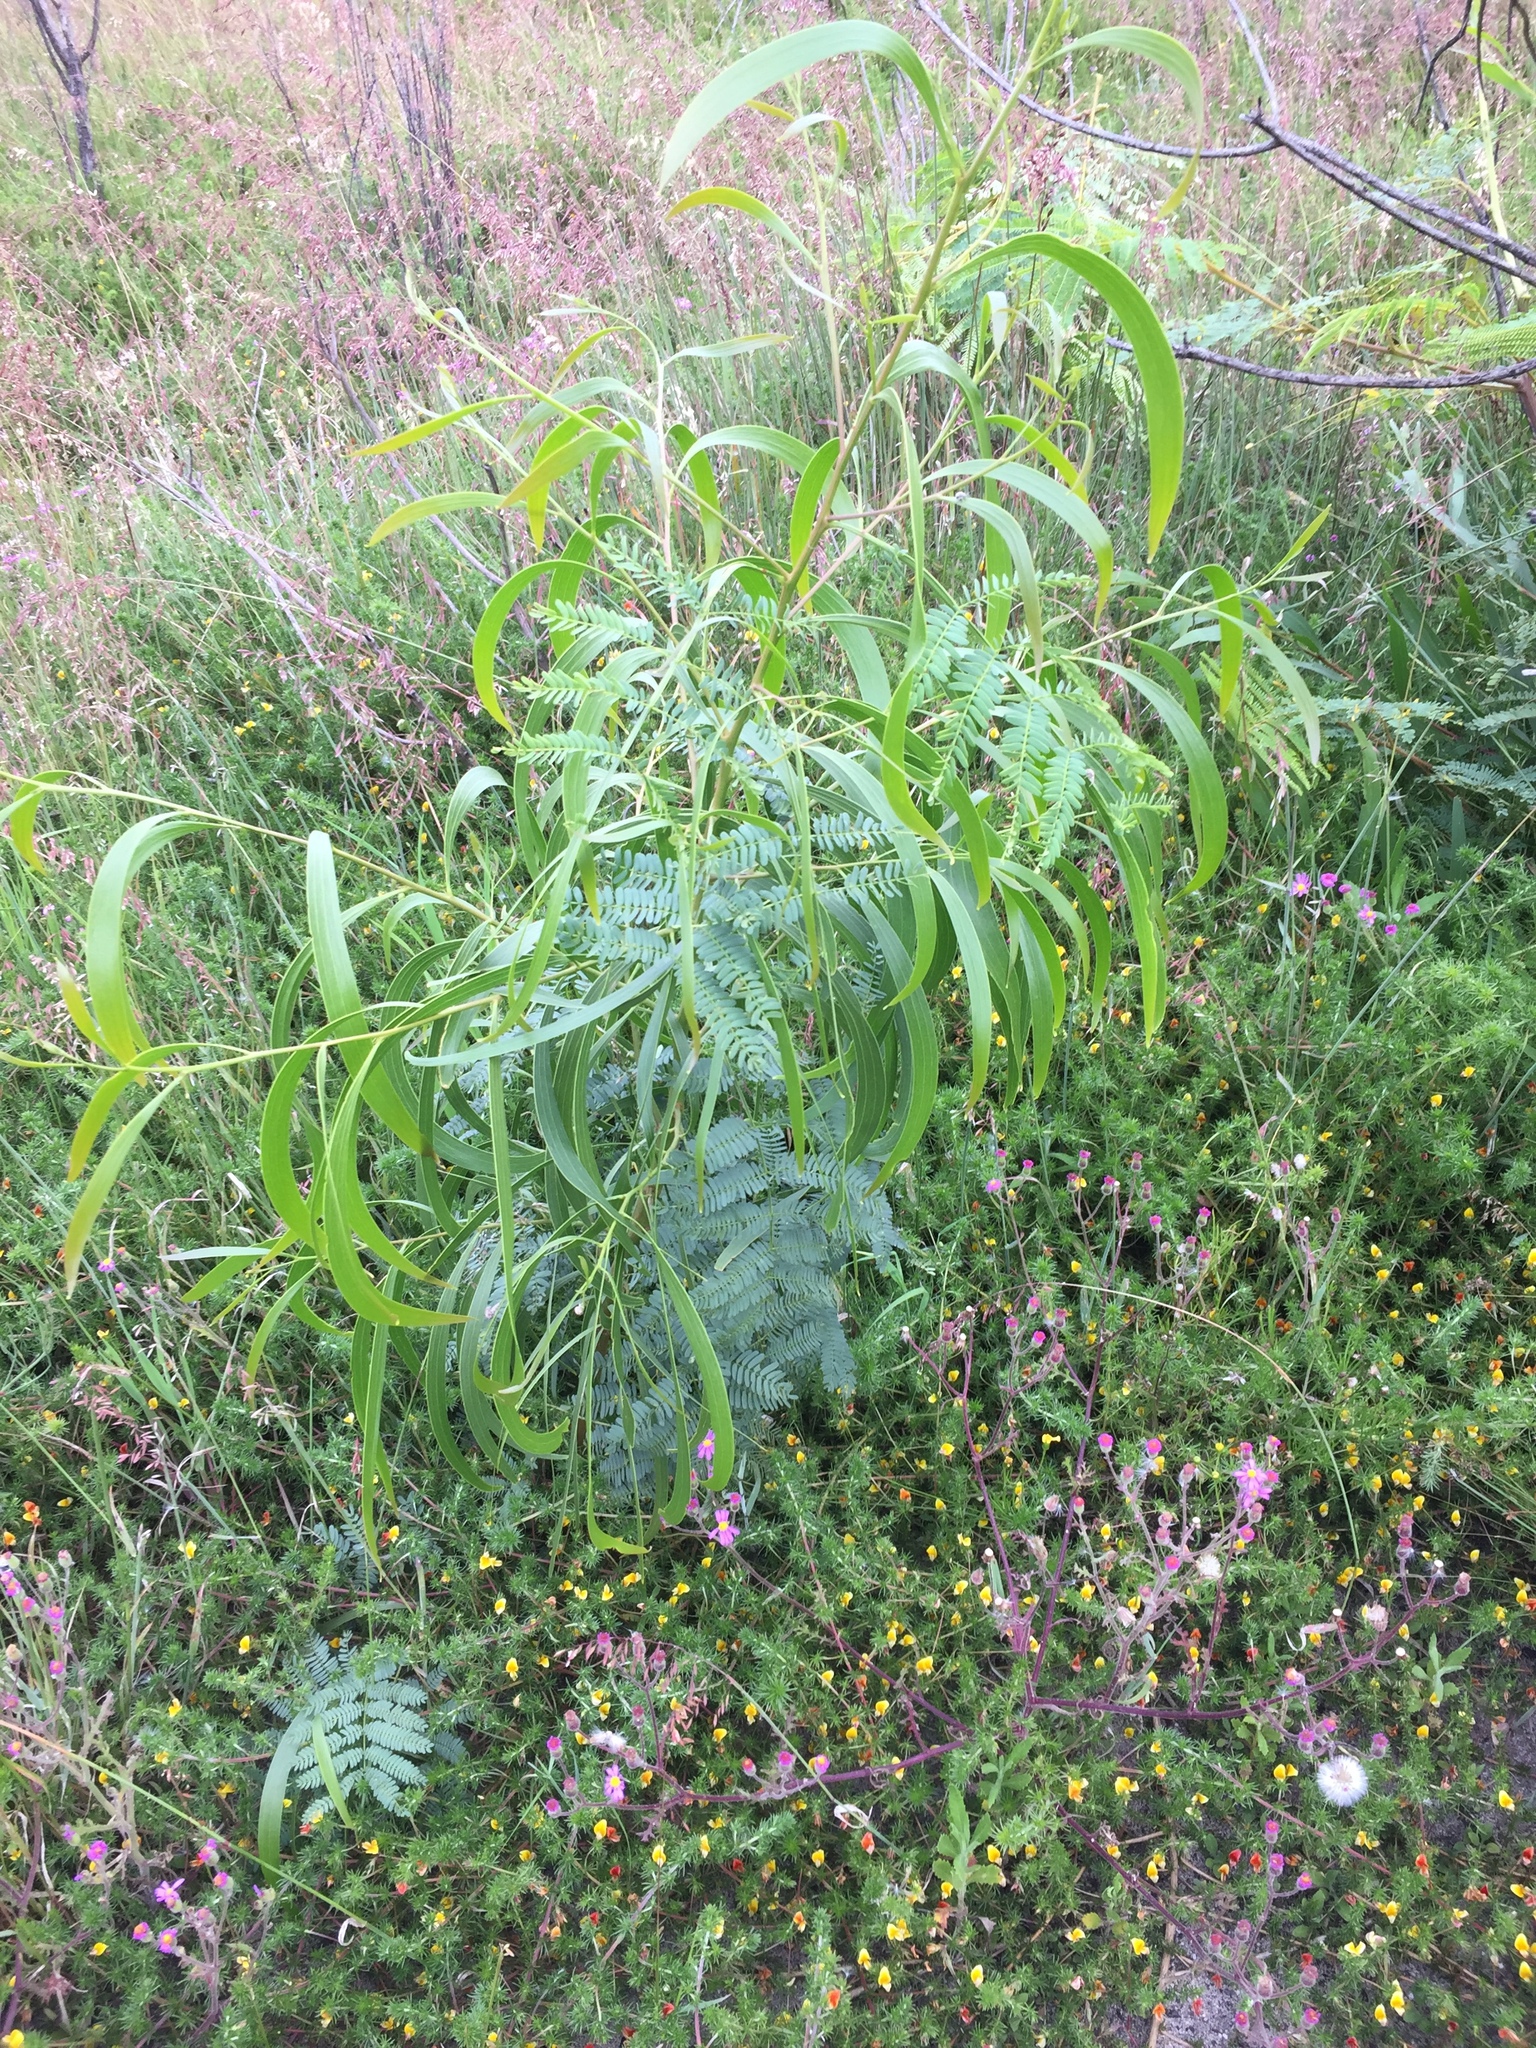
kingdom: Plantae
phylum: Tracheophyta
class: Magnoliopsida
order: Fabales
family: Fabaceae
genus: Acacia
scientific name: Acacia implexa
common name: Black wattle
